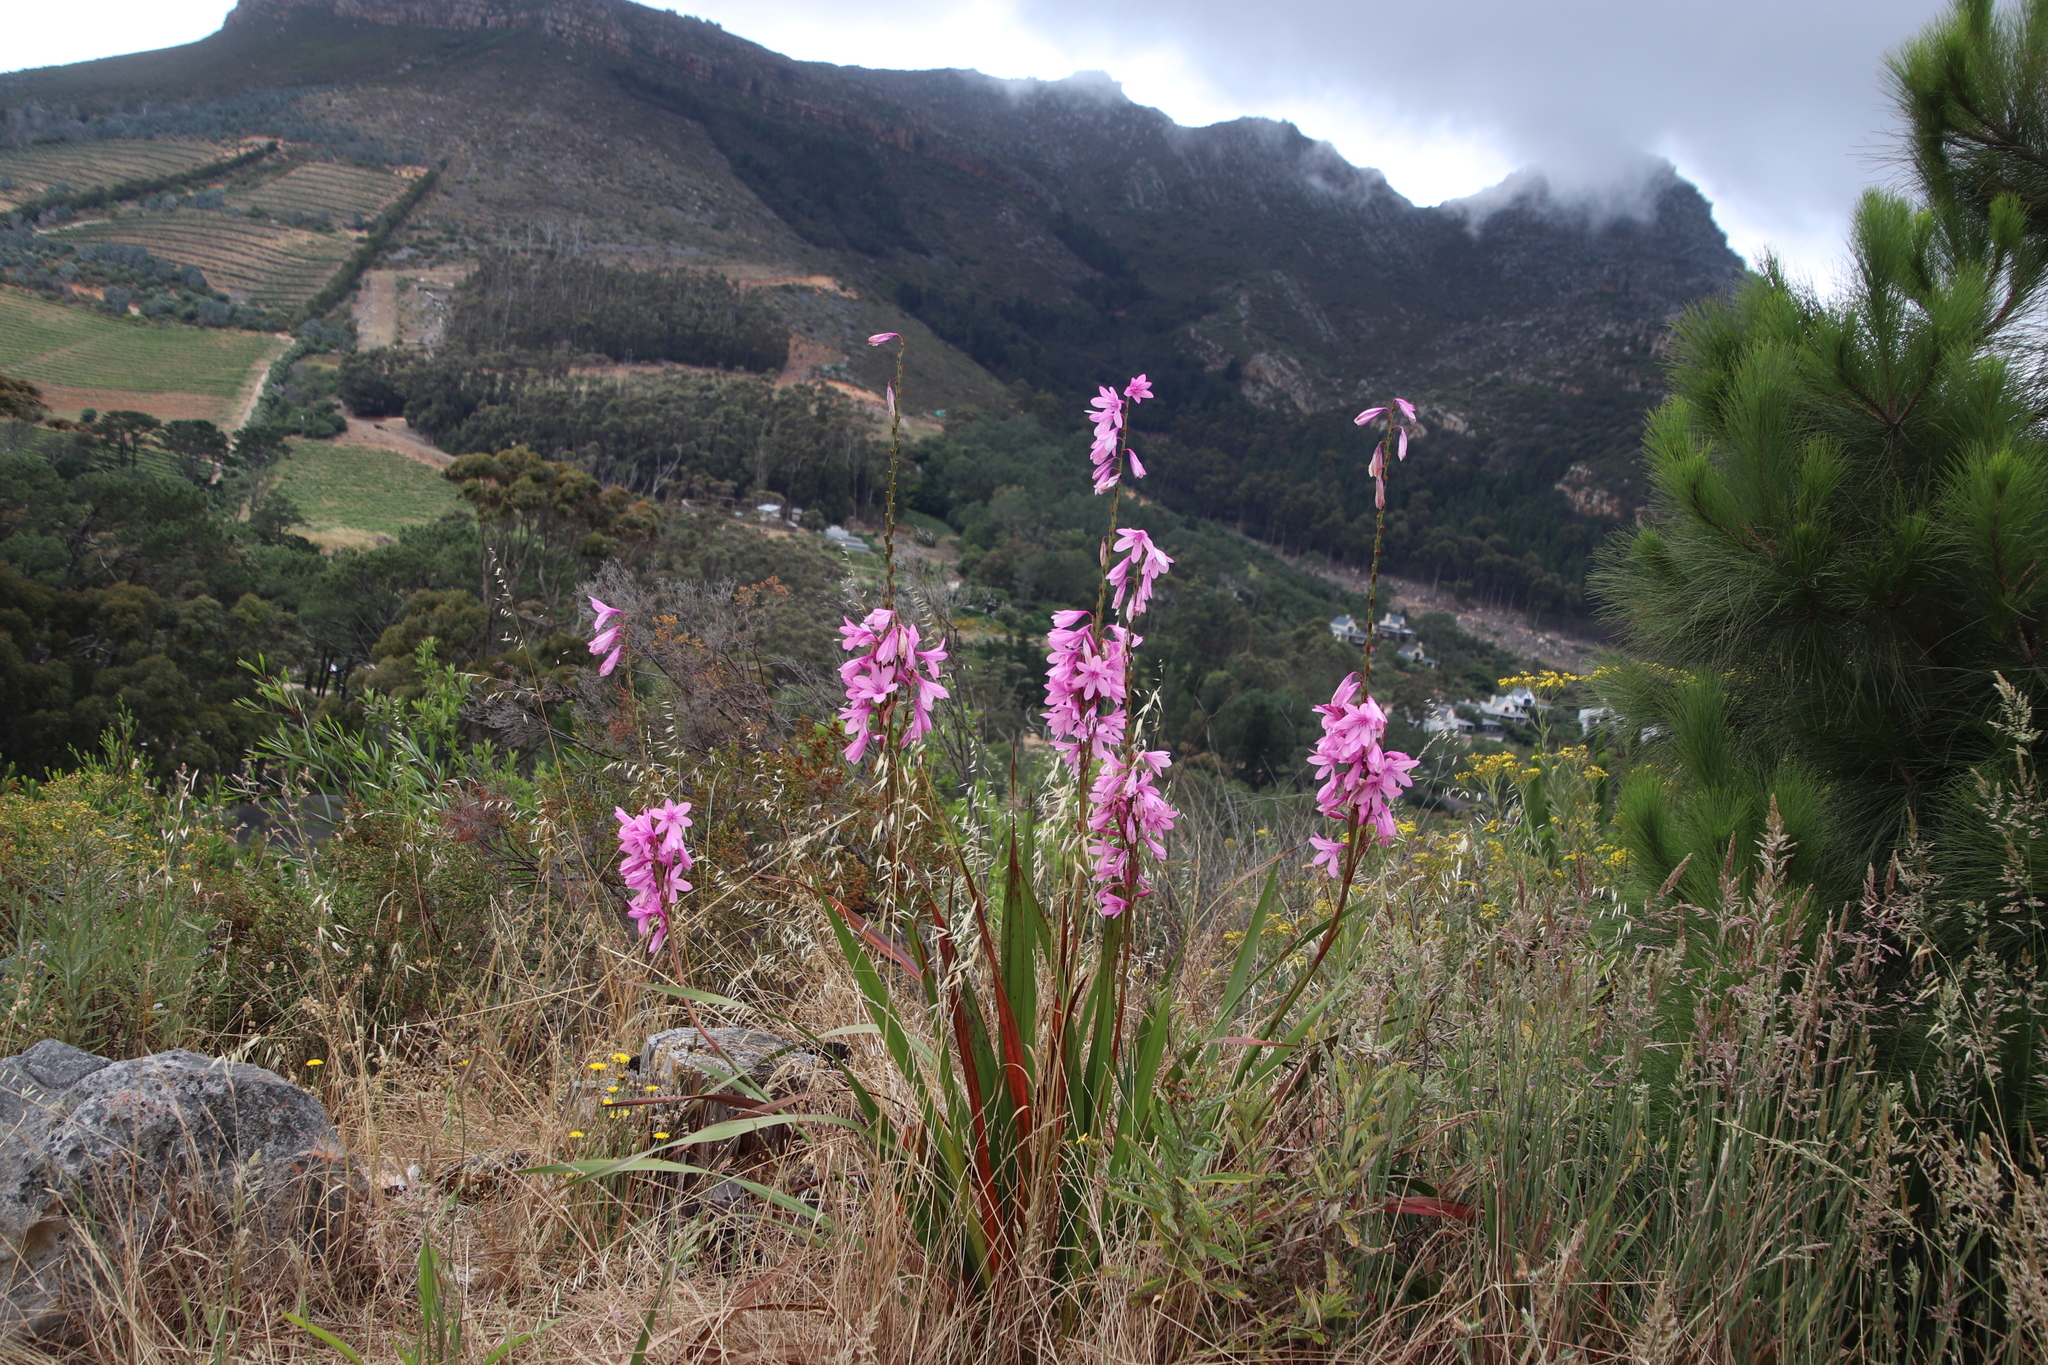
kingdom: Plantae
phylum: Tracheophyta
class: Liliopsida
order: Asparagales
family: Iridaceae
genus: Watsonia
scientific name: Watsonia borbonica
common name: Bugle-lily
